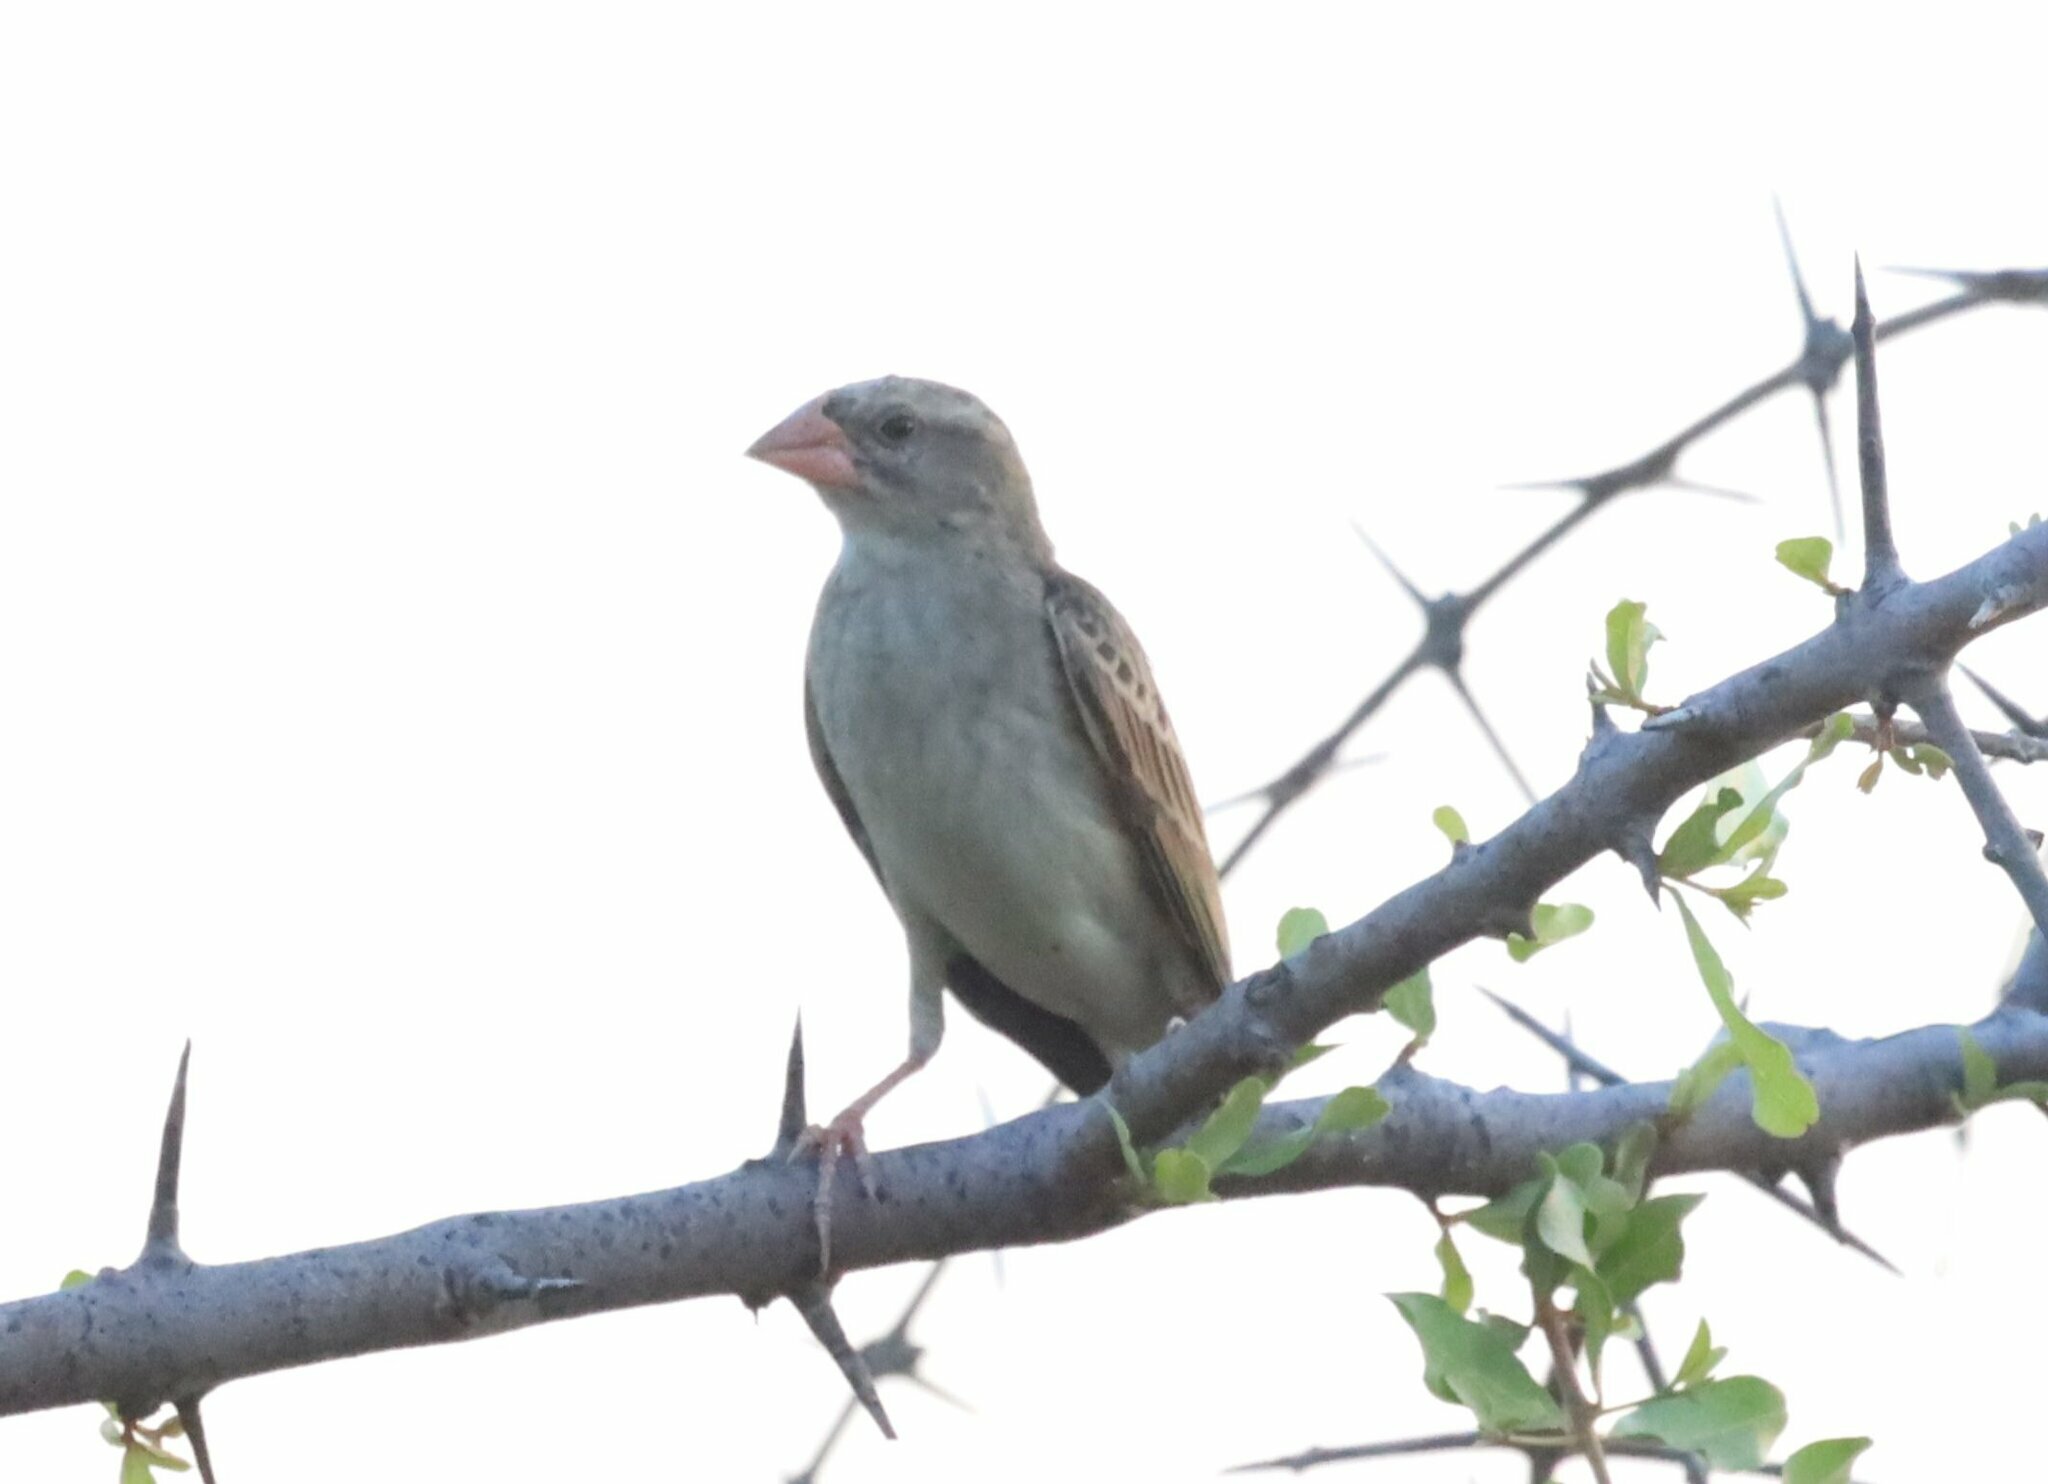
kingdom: Animalia
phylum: Chordata
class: Aves
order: Passeriformes
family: Ploceidae
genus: Quelea
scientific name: Quelea quelea
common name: Red-billed quelea
